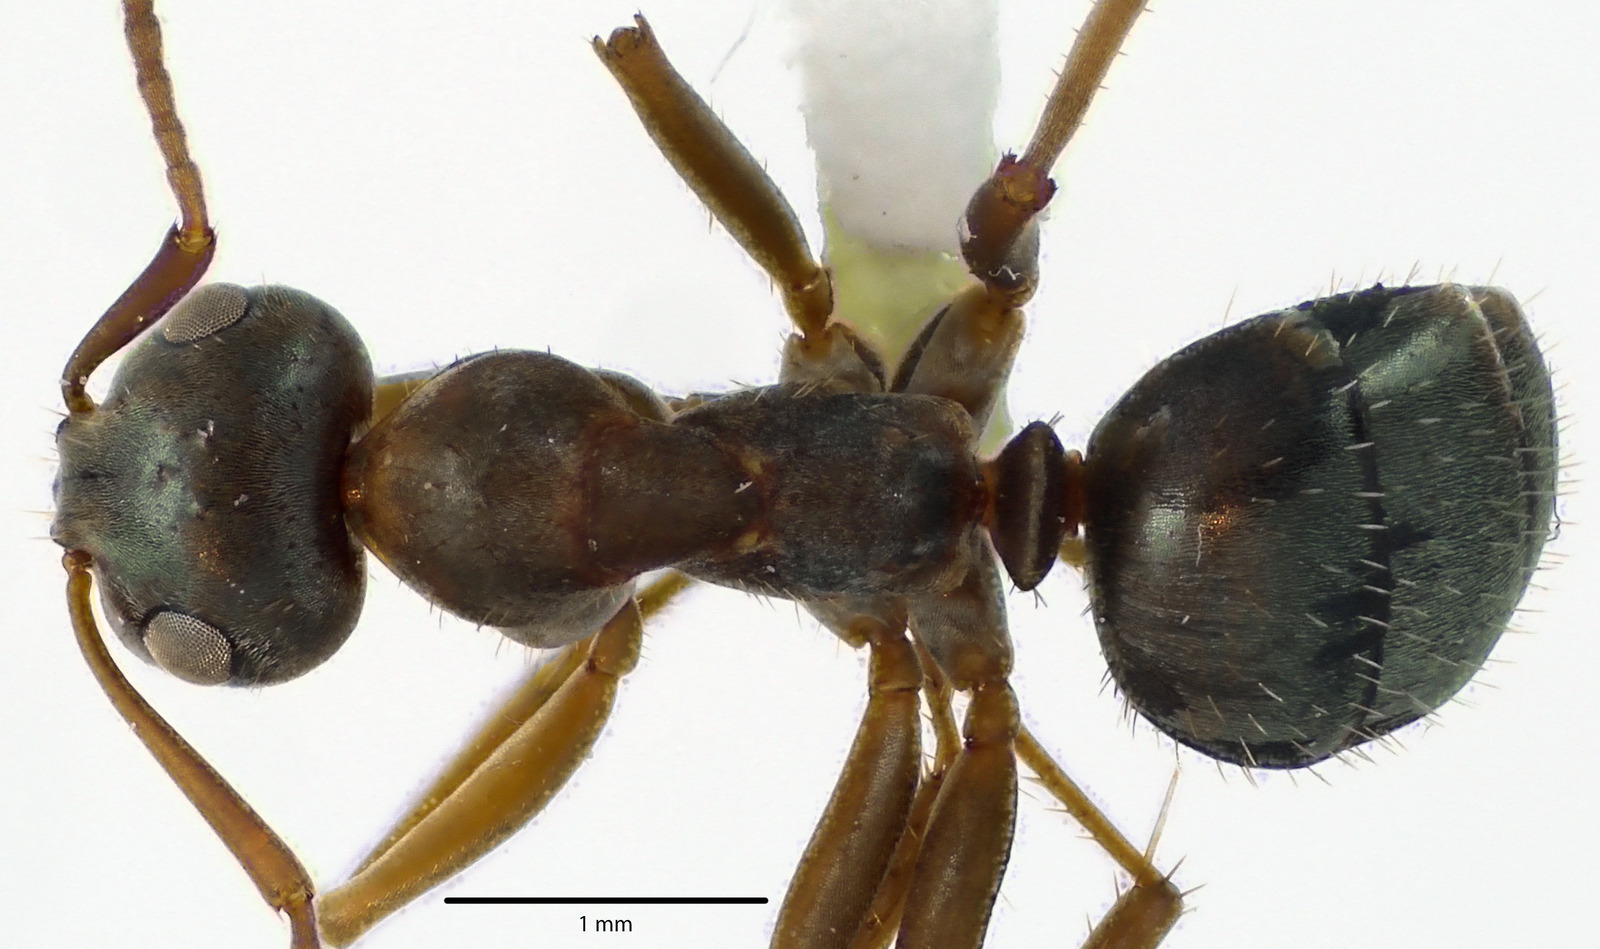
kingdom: Animalia
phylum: Arthropoda
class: Insecta
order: Hymenoptera
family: Formicidae
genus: Formica
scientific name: Formica montana
